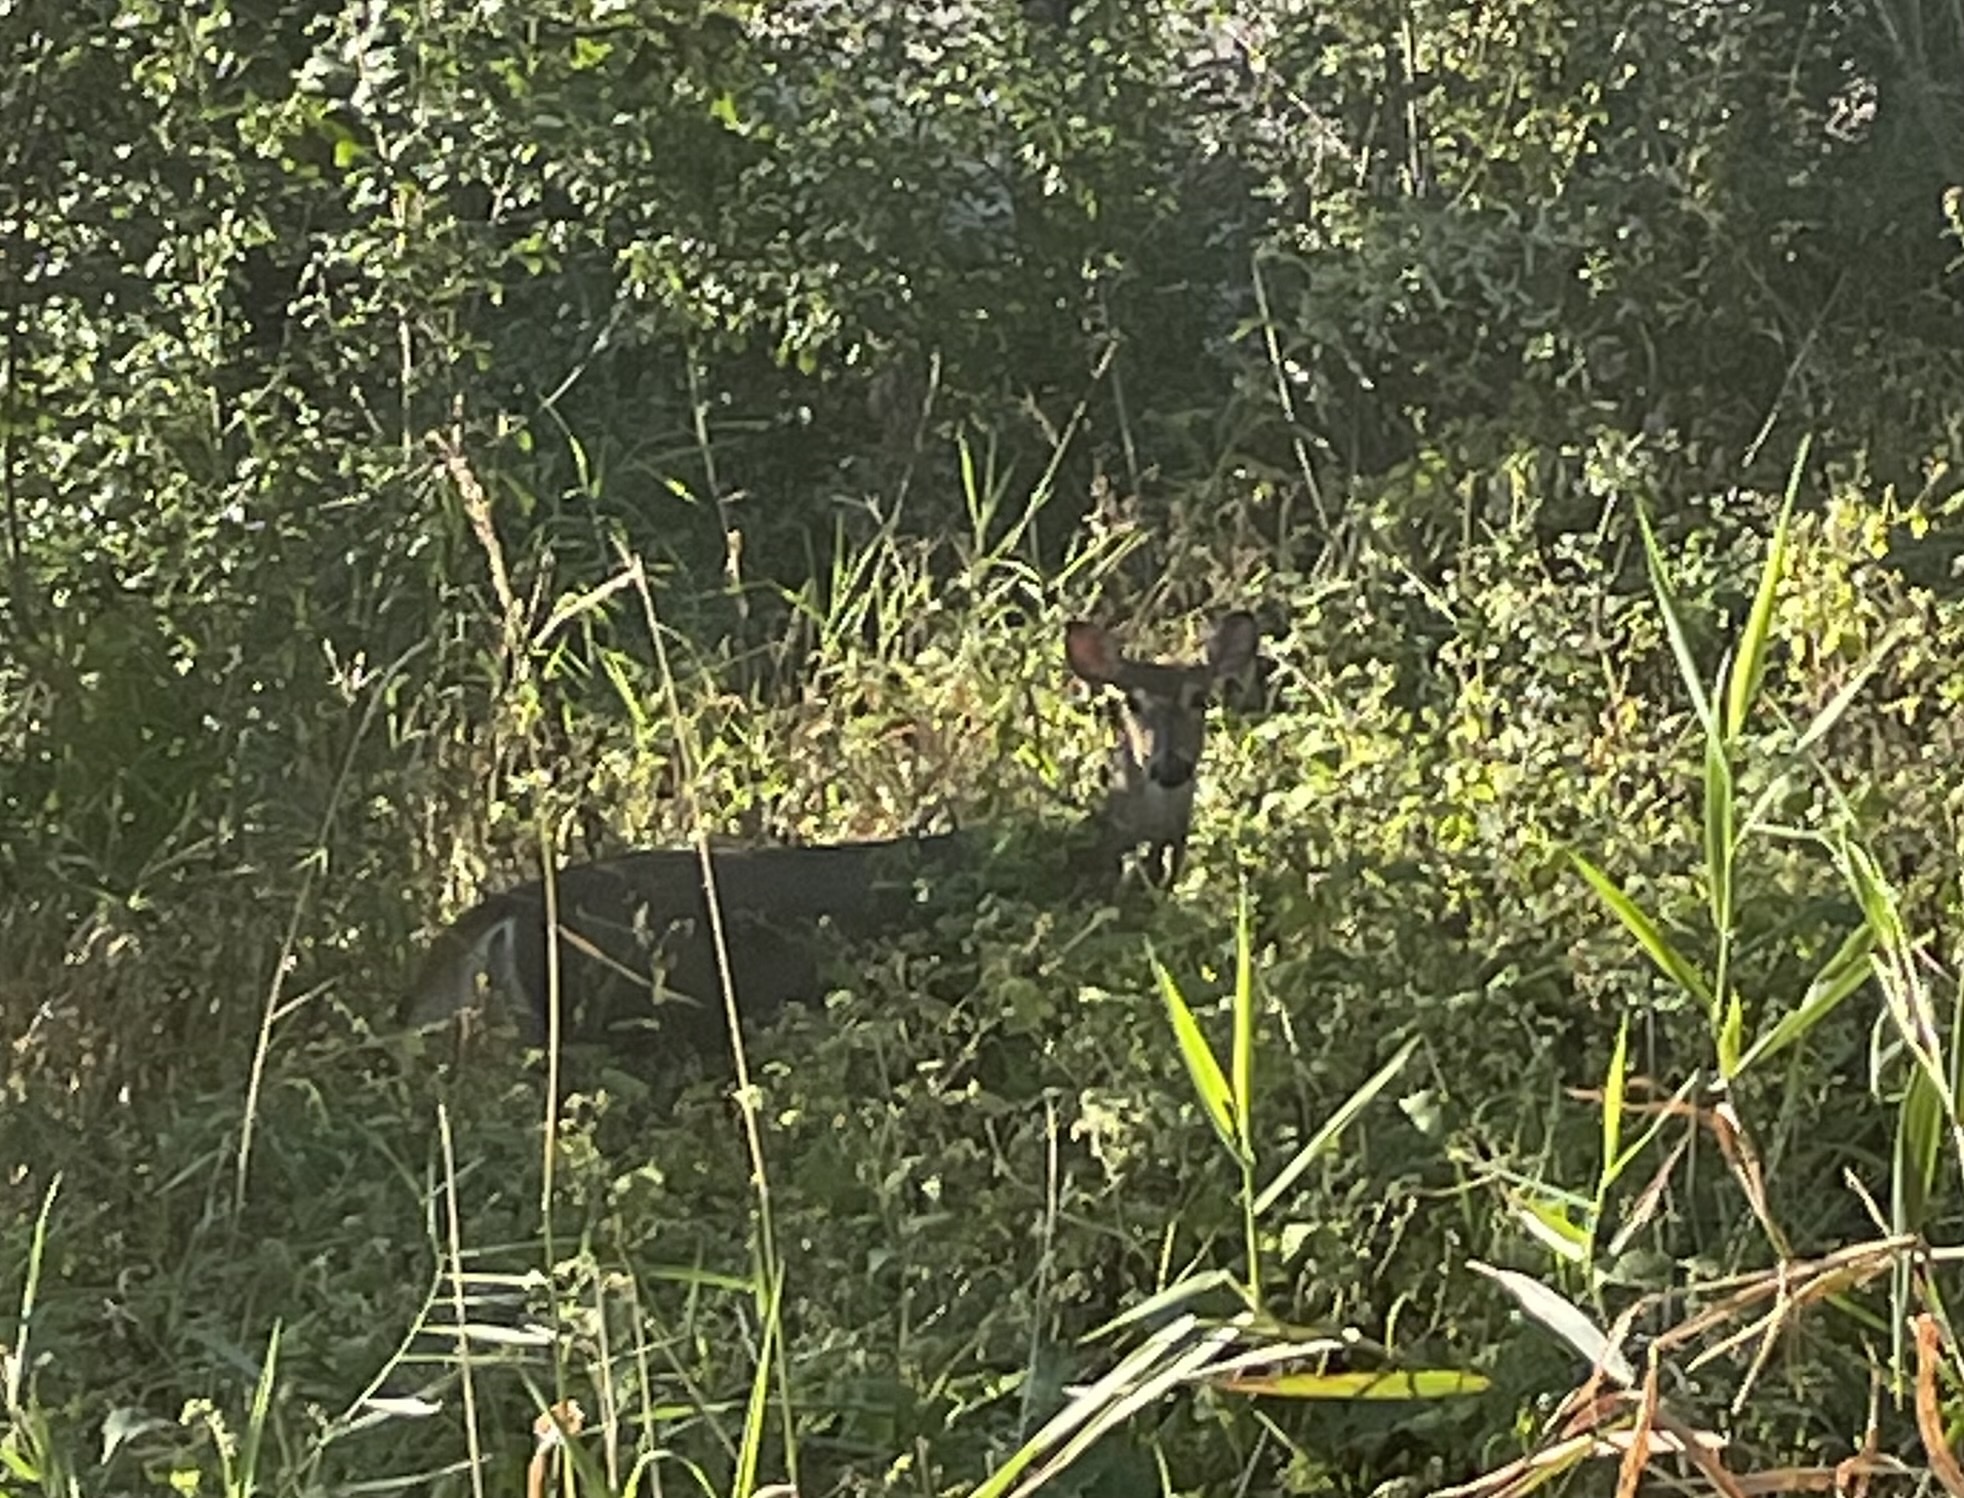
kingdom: Animalia
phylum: Chordata
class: Mammalia
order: Artiodactyla
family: Cervidae
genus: Odocoileus
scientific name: Odocoileus virginianus
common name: White-tailed deer
